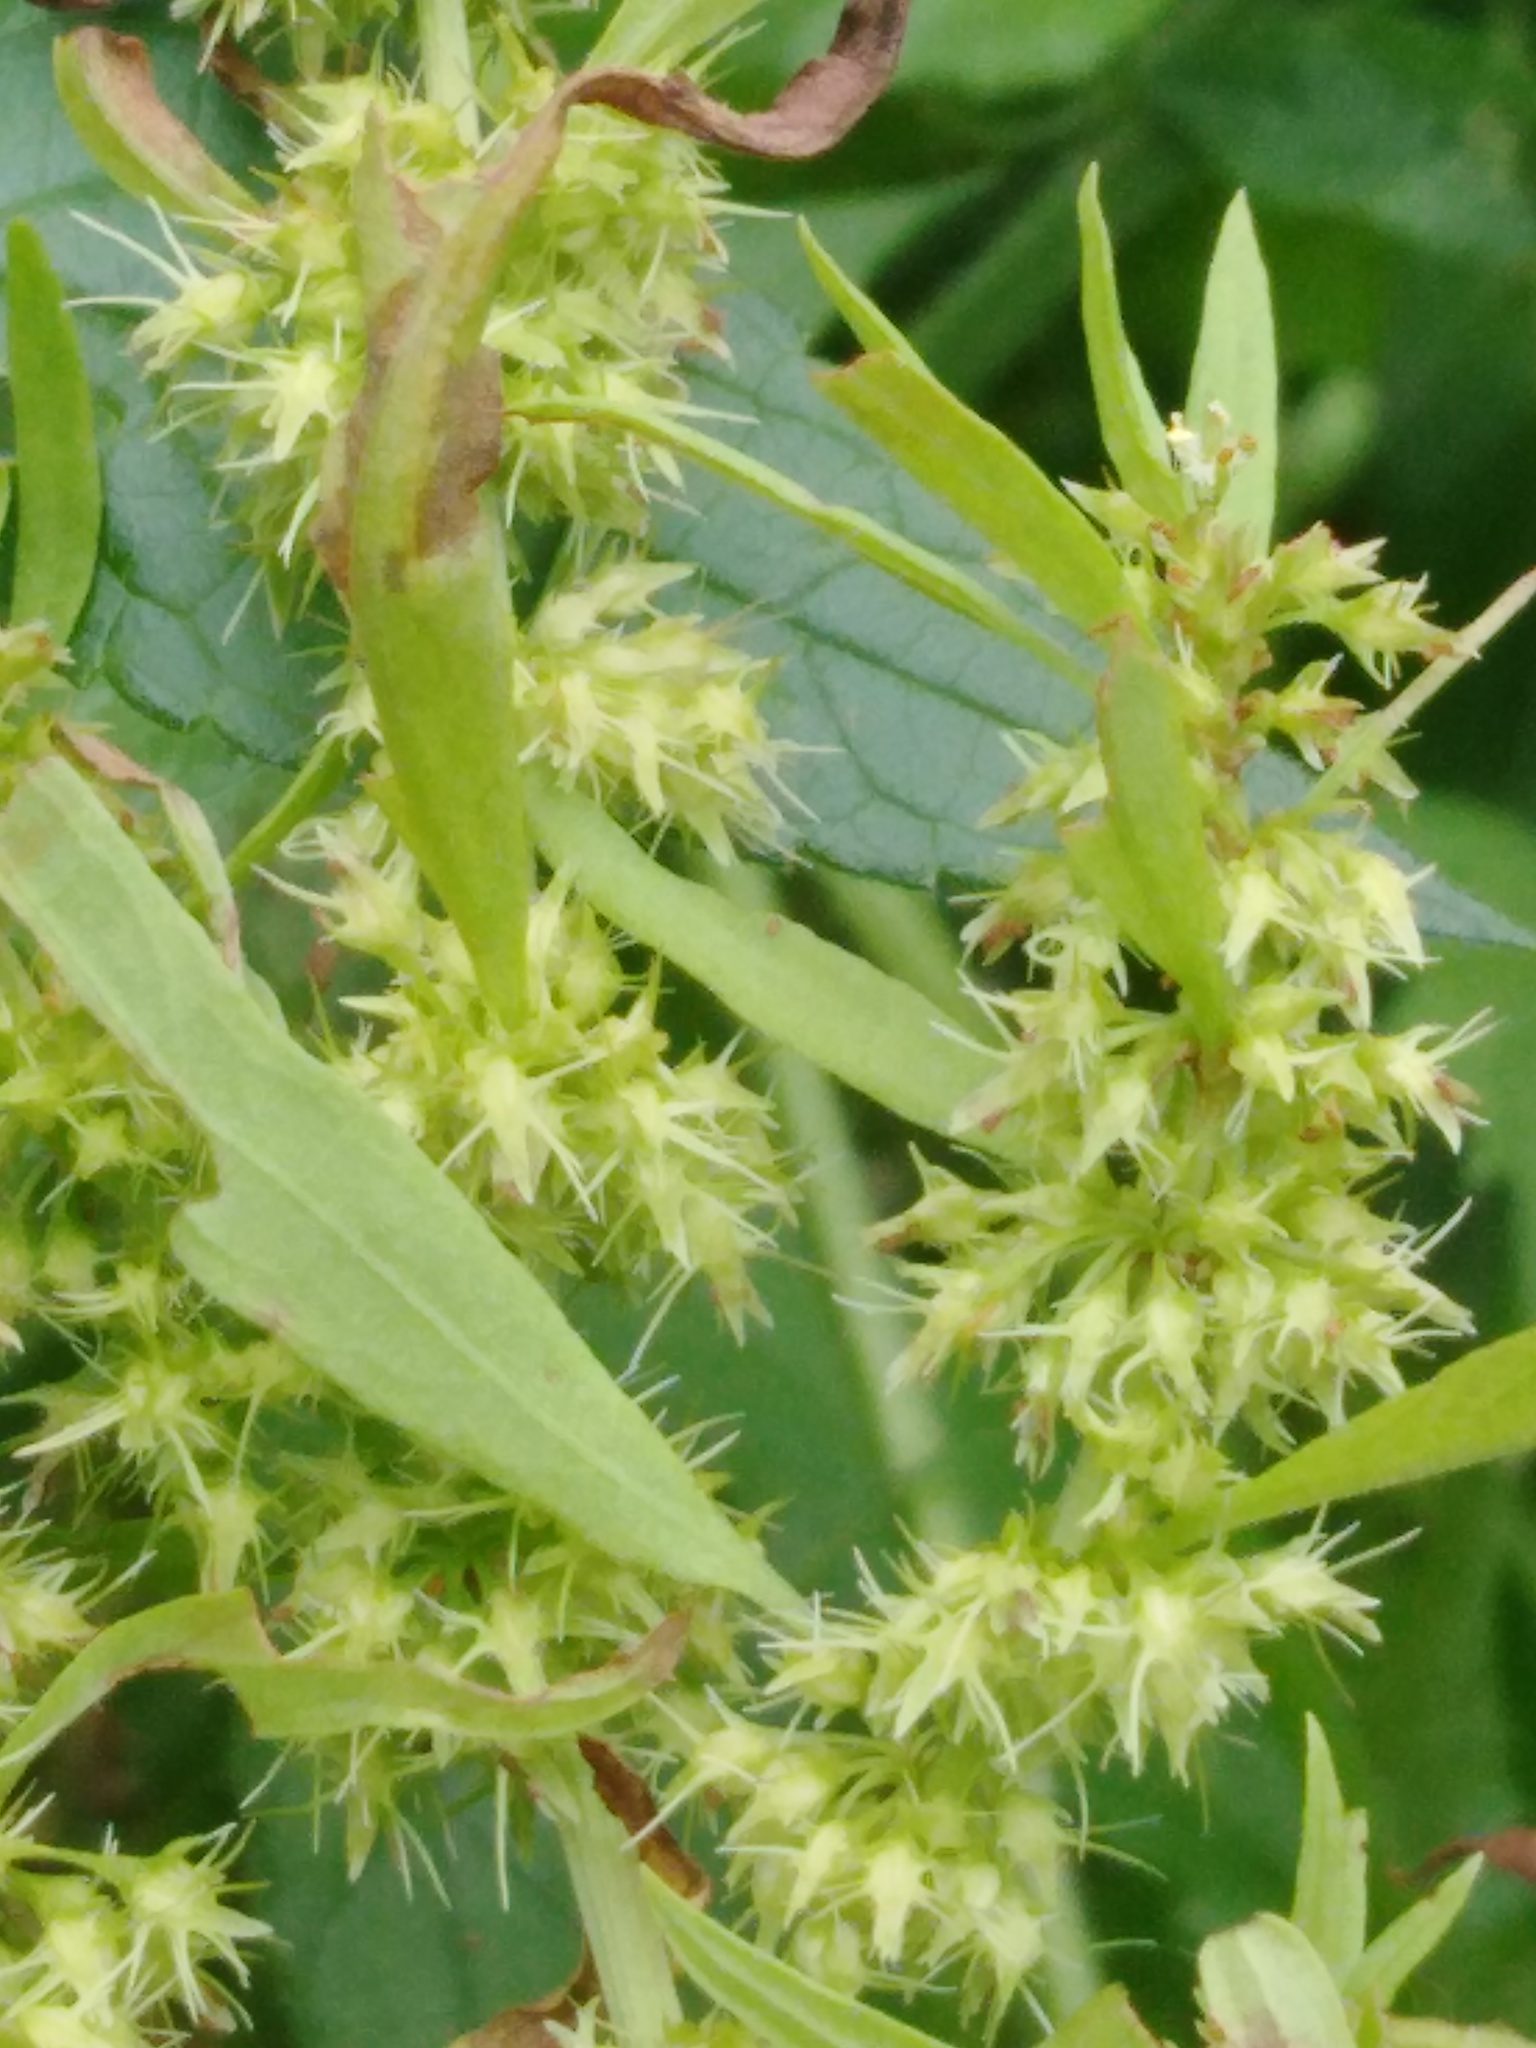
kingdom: Plantae
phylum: Tracheophyta
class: Magnoliopsida
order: Caryophyllales
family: Polygonaceae
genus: Rumex
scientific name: Rumex maritimus
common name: Golden dock
